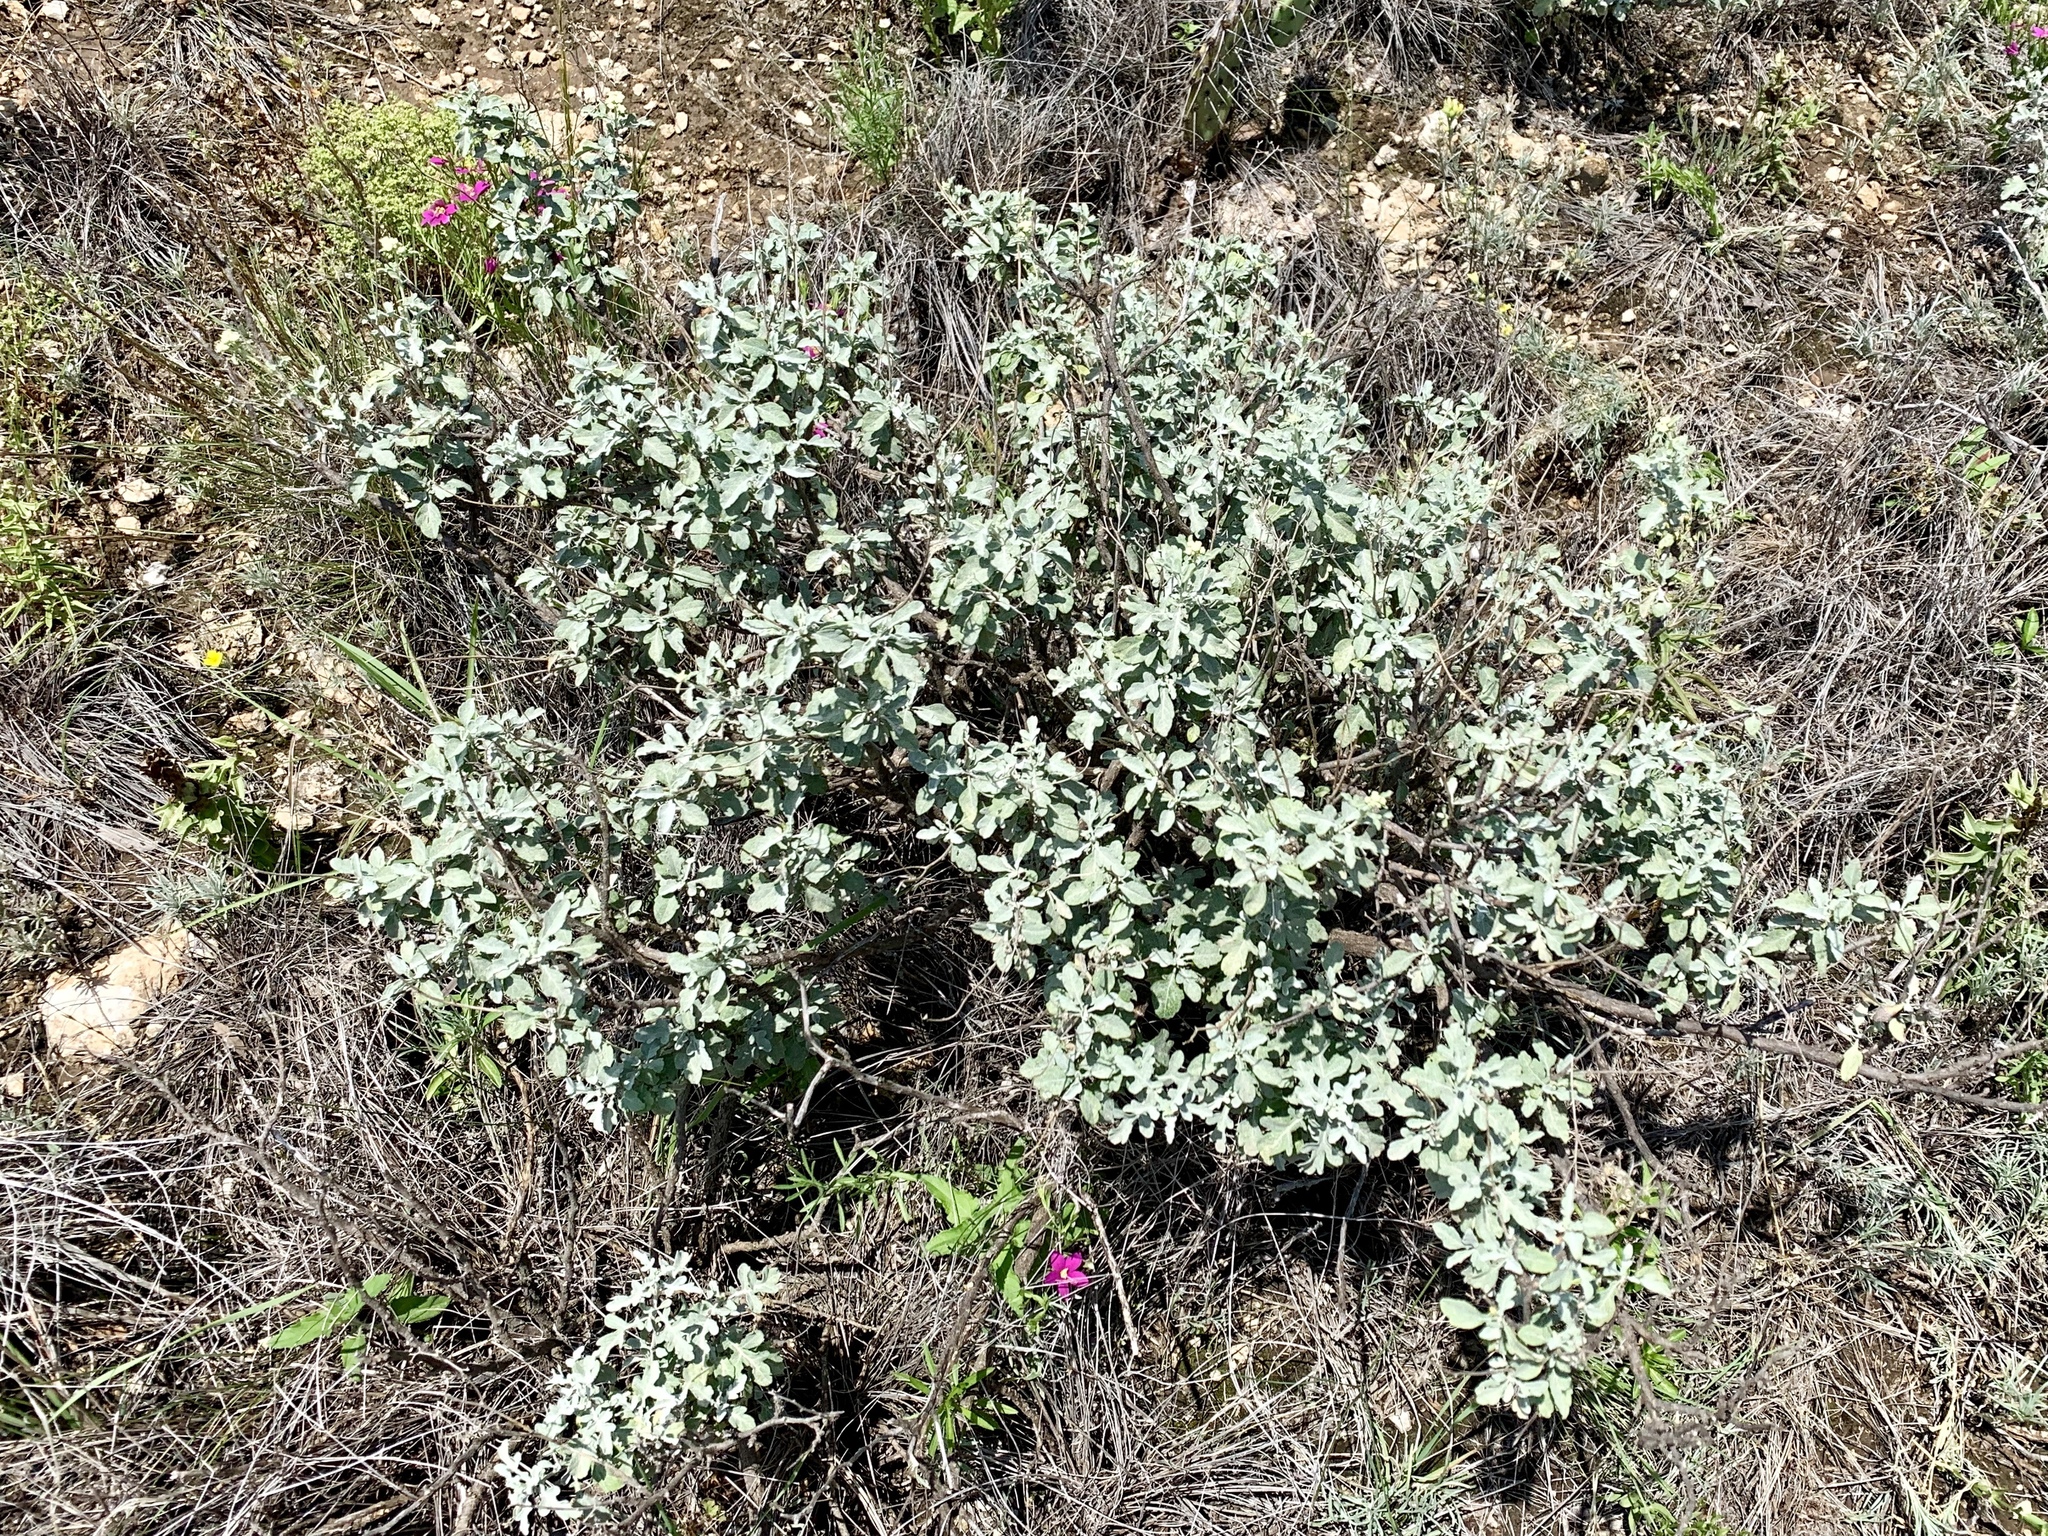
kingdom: Plantae
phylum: Tracheophyta
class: Magnoliopsida
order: Asterales
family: Asteraceae
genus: Parthenium
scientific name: Parthenium incanum
